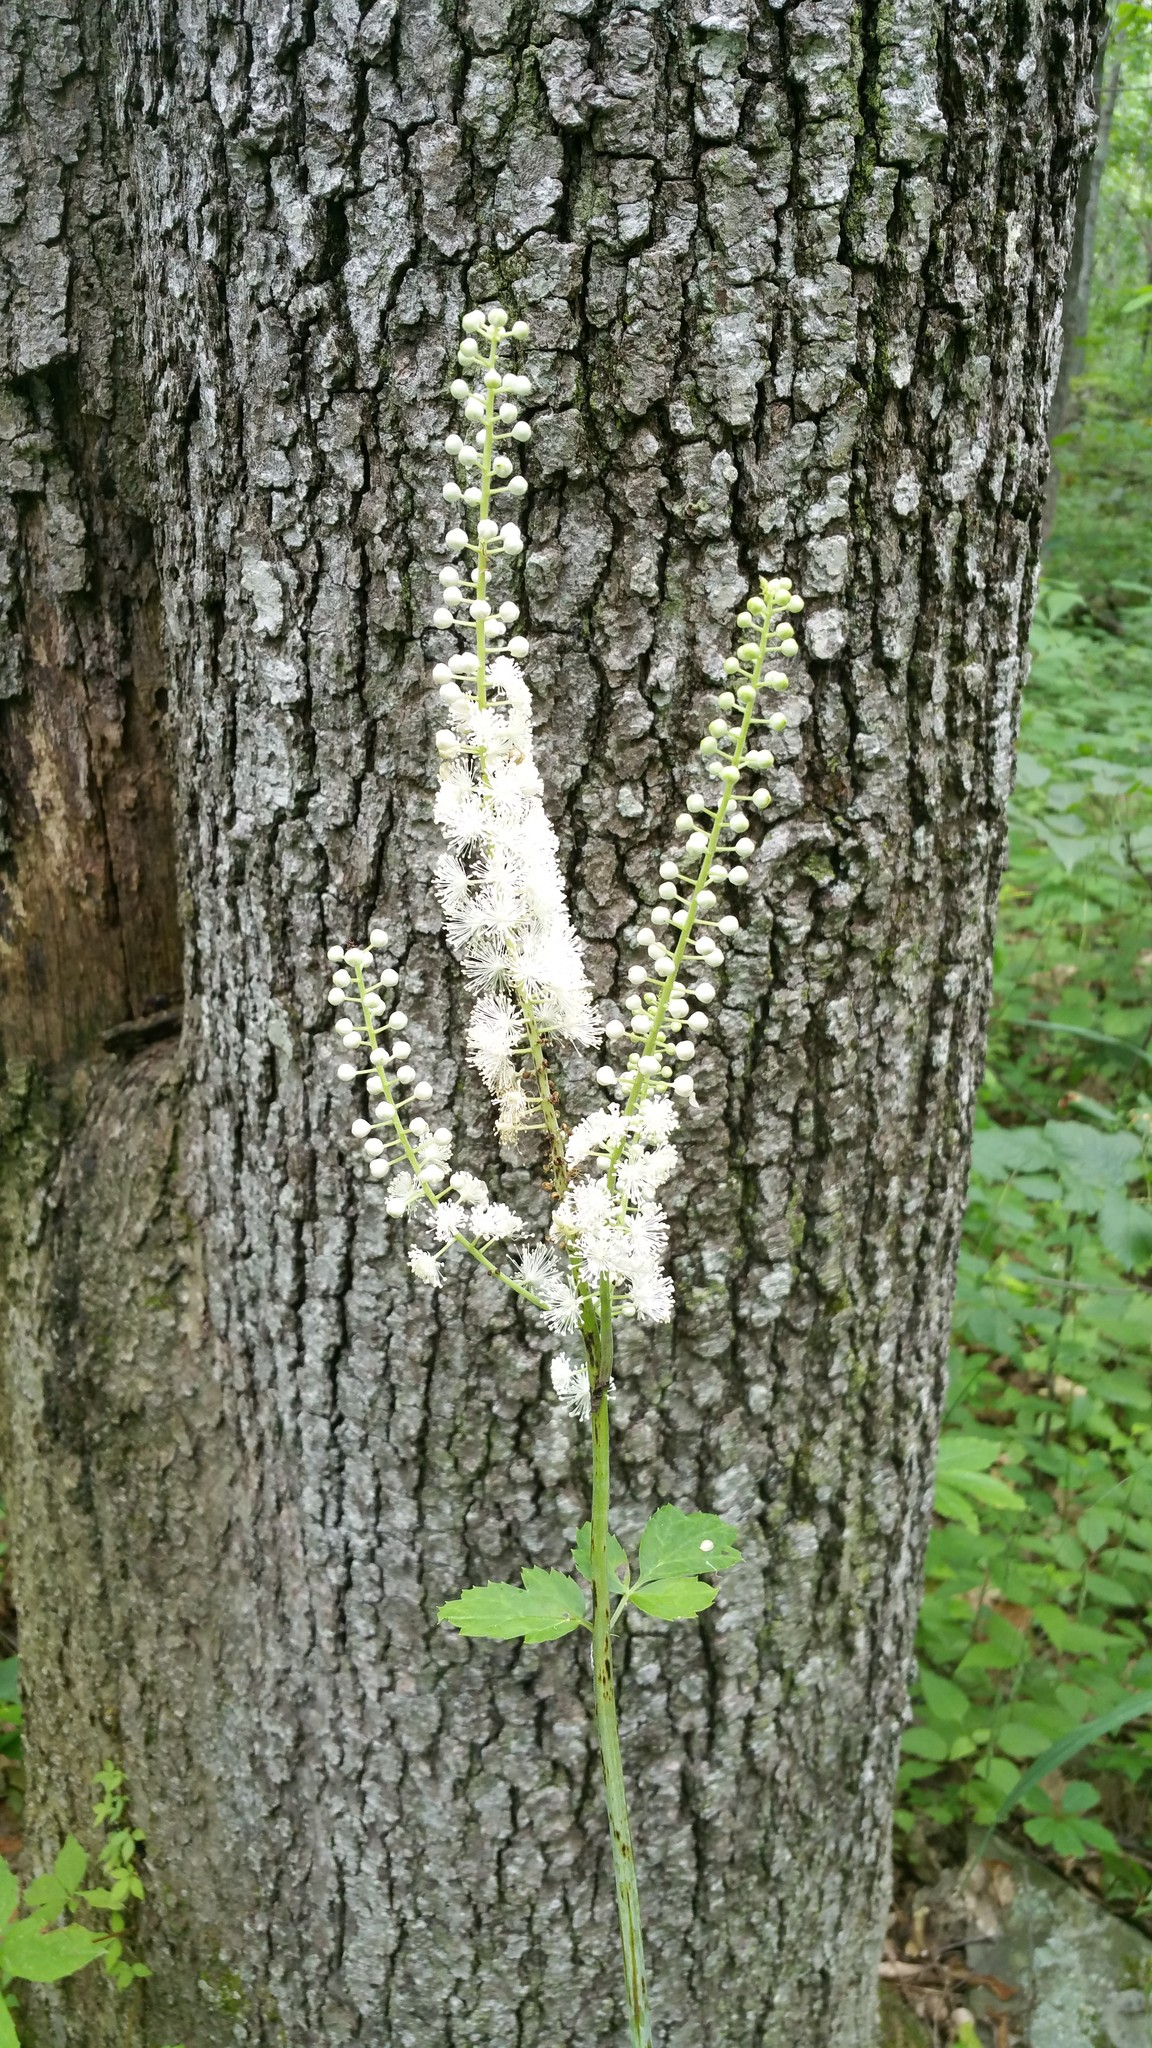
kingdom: Plantae
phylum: Tracheophyta
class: Magnoliopsida
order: Ranunculales
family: Ranunculaceae
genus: Actaea
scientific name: Actaea racemosa
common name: Black cohosh
